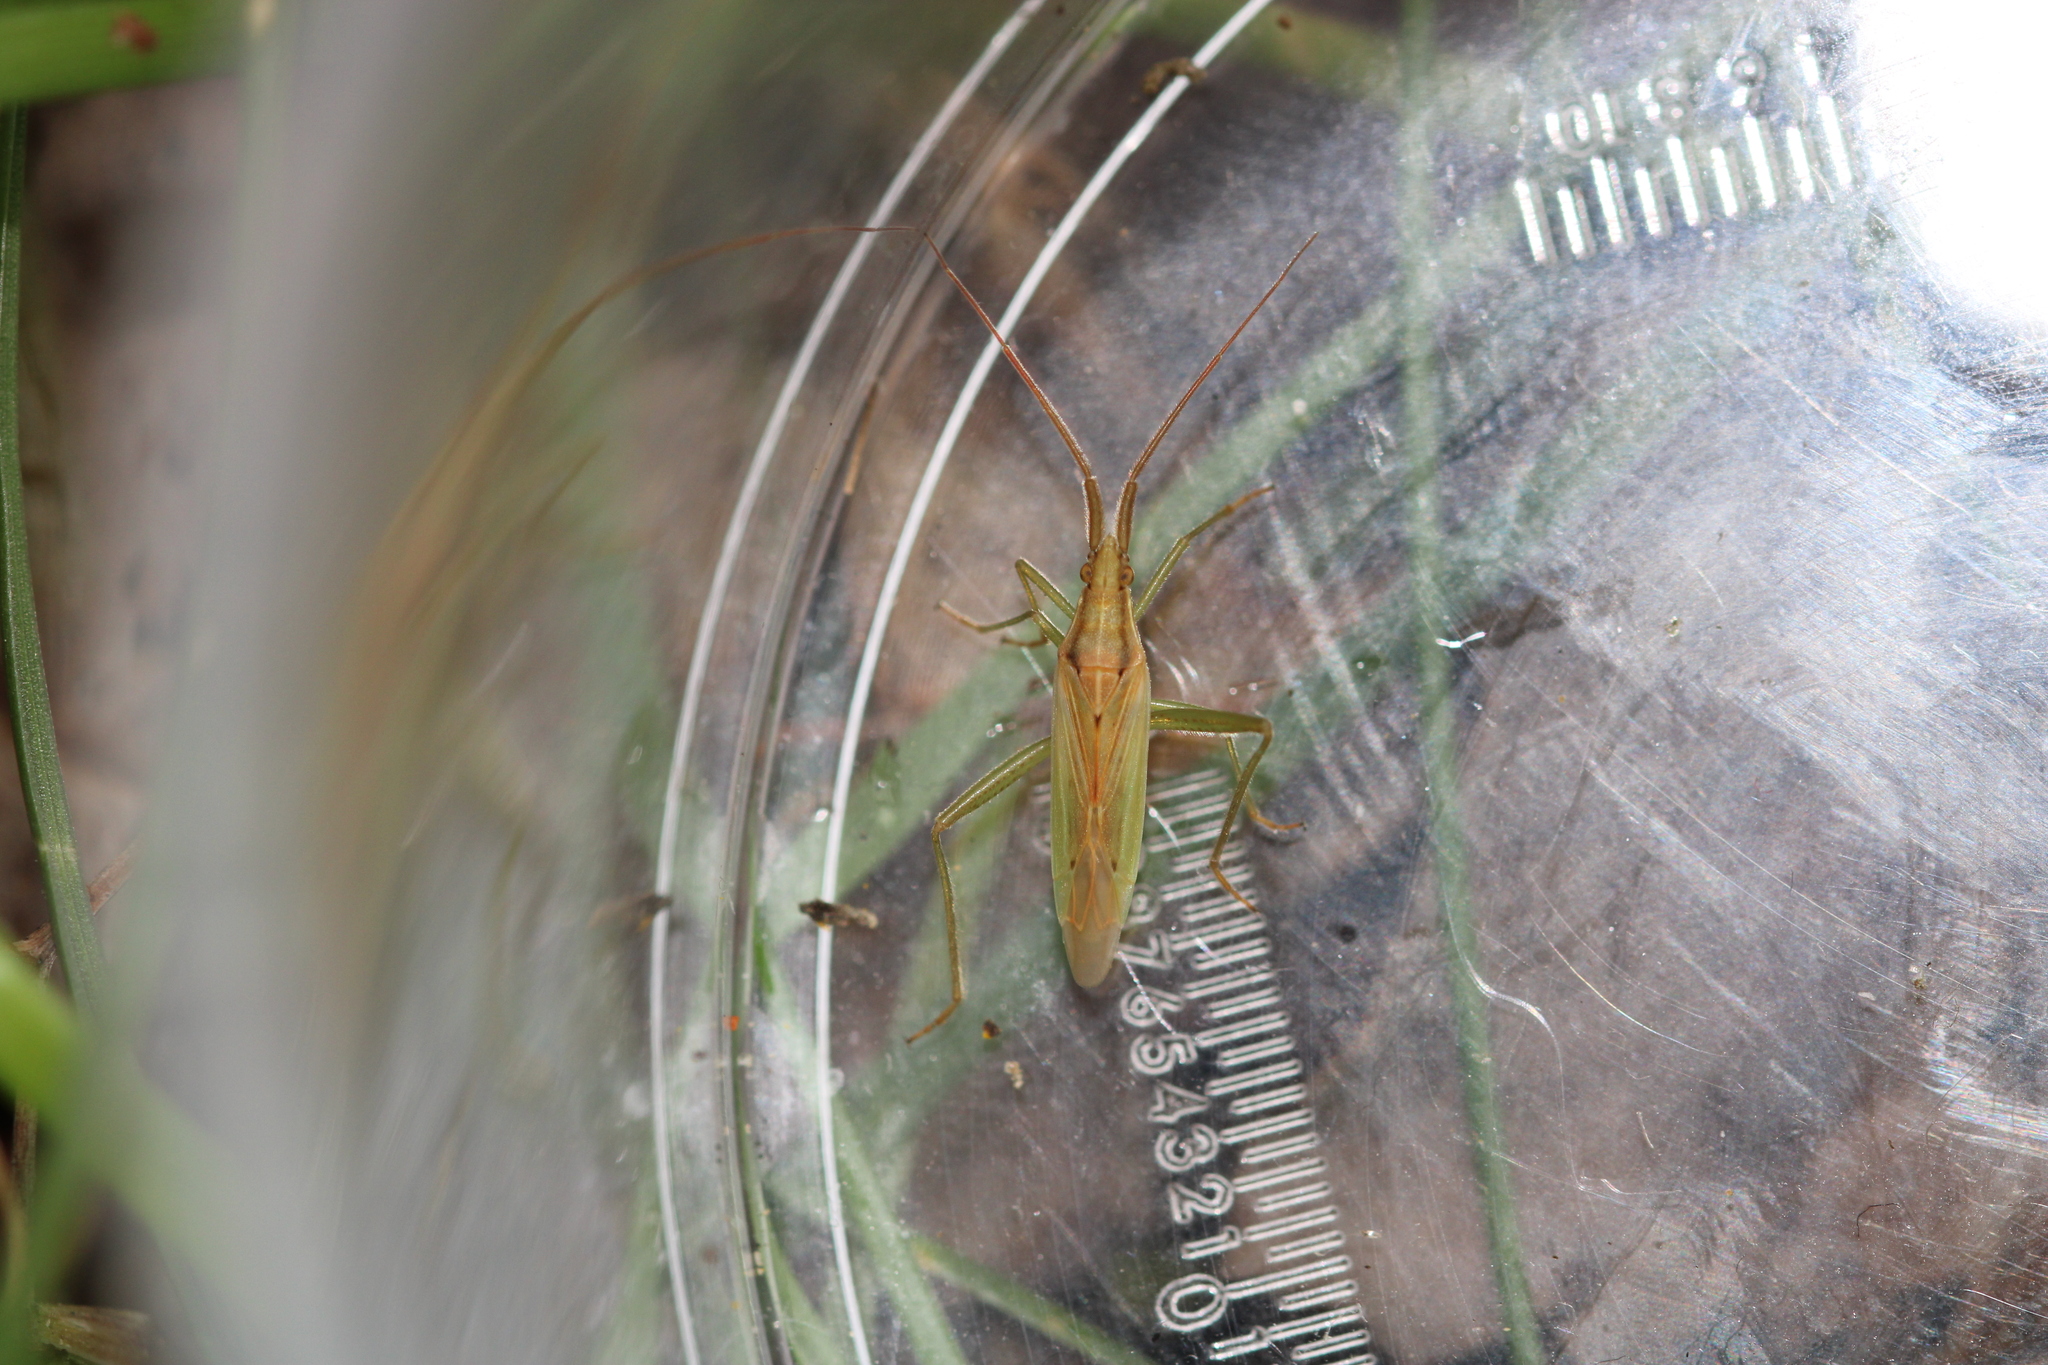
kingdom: Animalia
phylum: Arthropoda
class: Insecta
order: Hemiptera
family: Miridae
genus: Stenodema
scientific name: Stenodema laevigata
